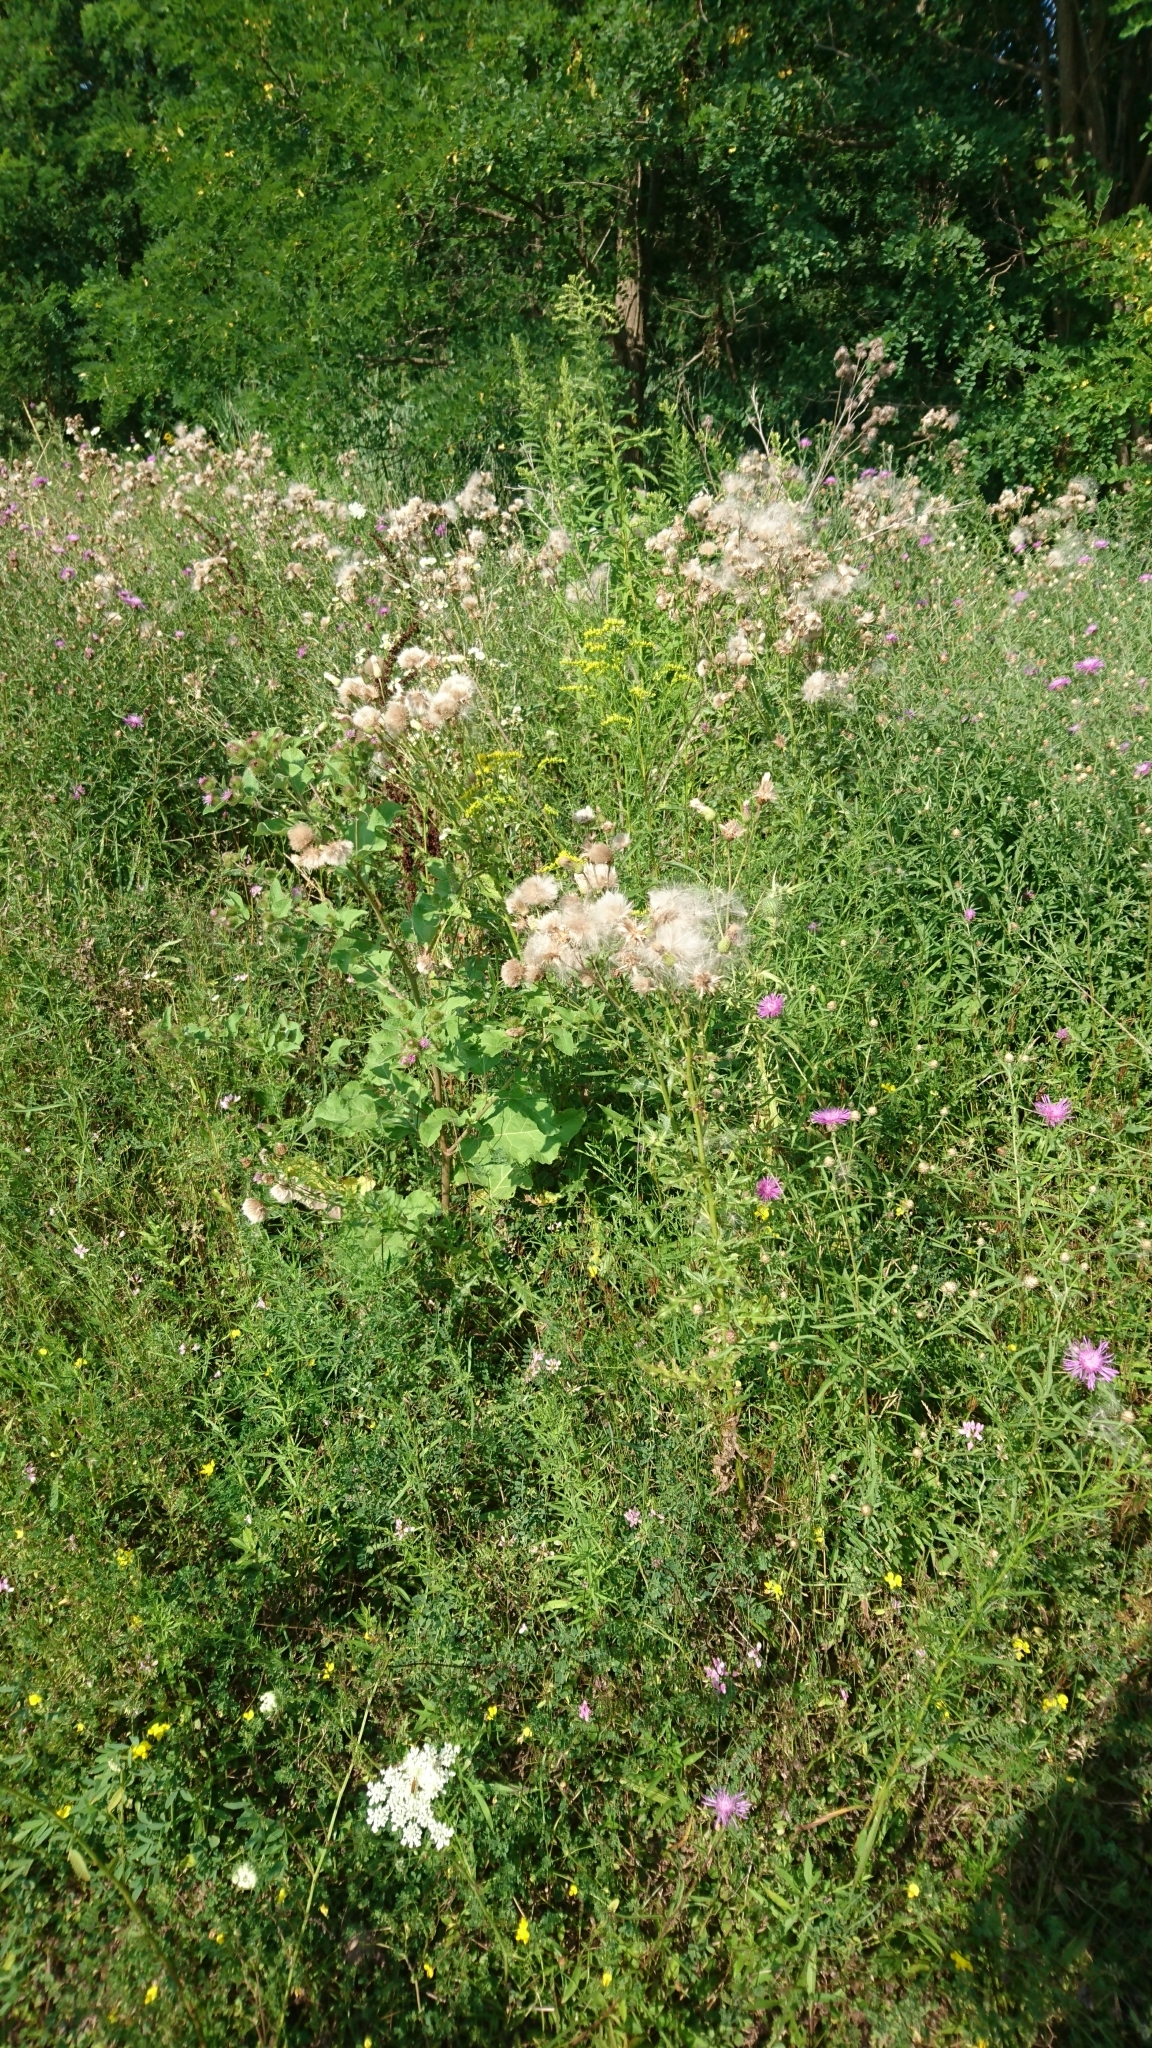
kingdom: Plantae
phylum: Tracheophyta
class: Magnoliopsida
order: Asterales
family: Asteraceae
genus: Cirsium
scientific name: Cirsium arvense
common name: Creeping thistle
